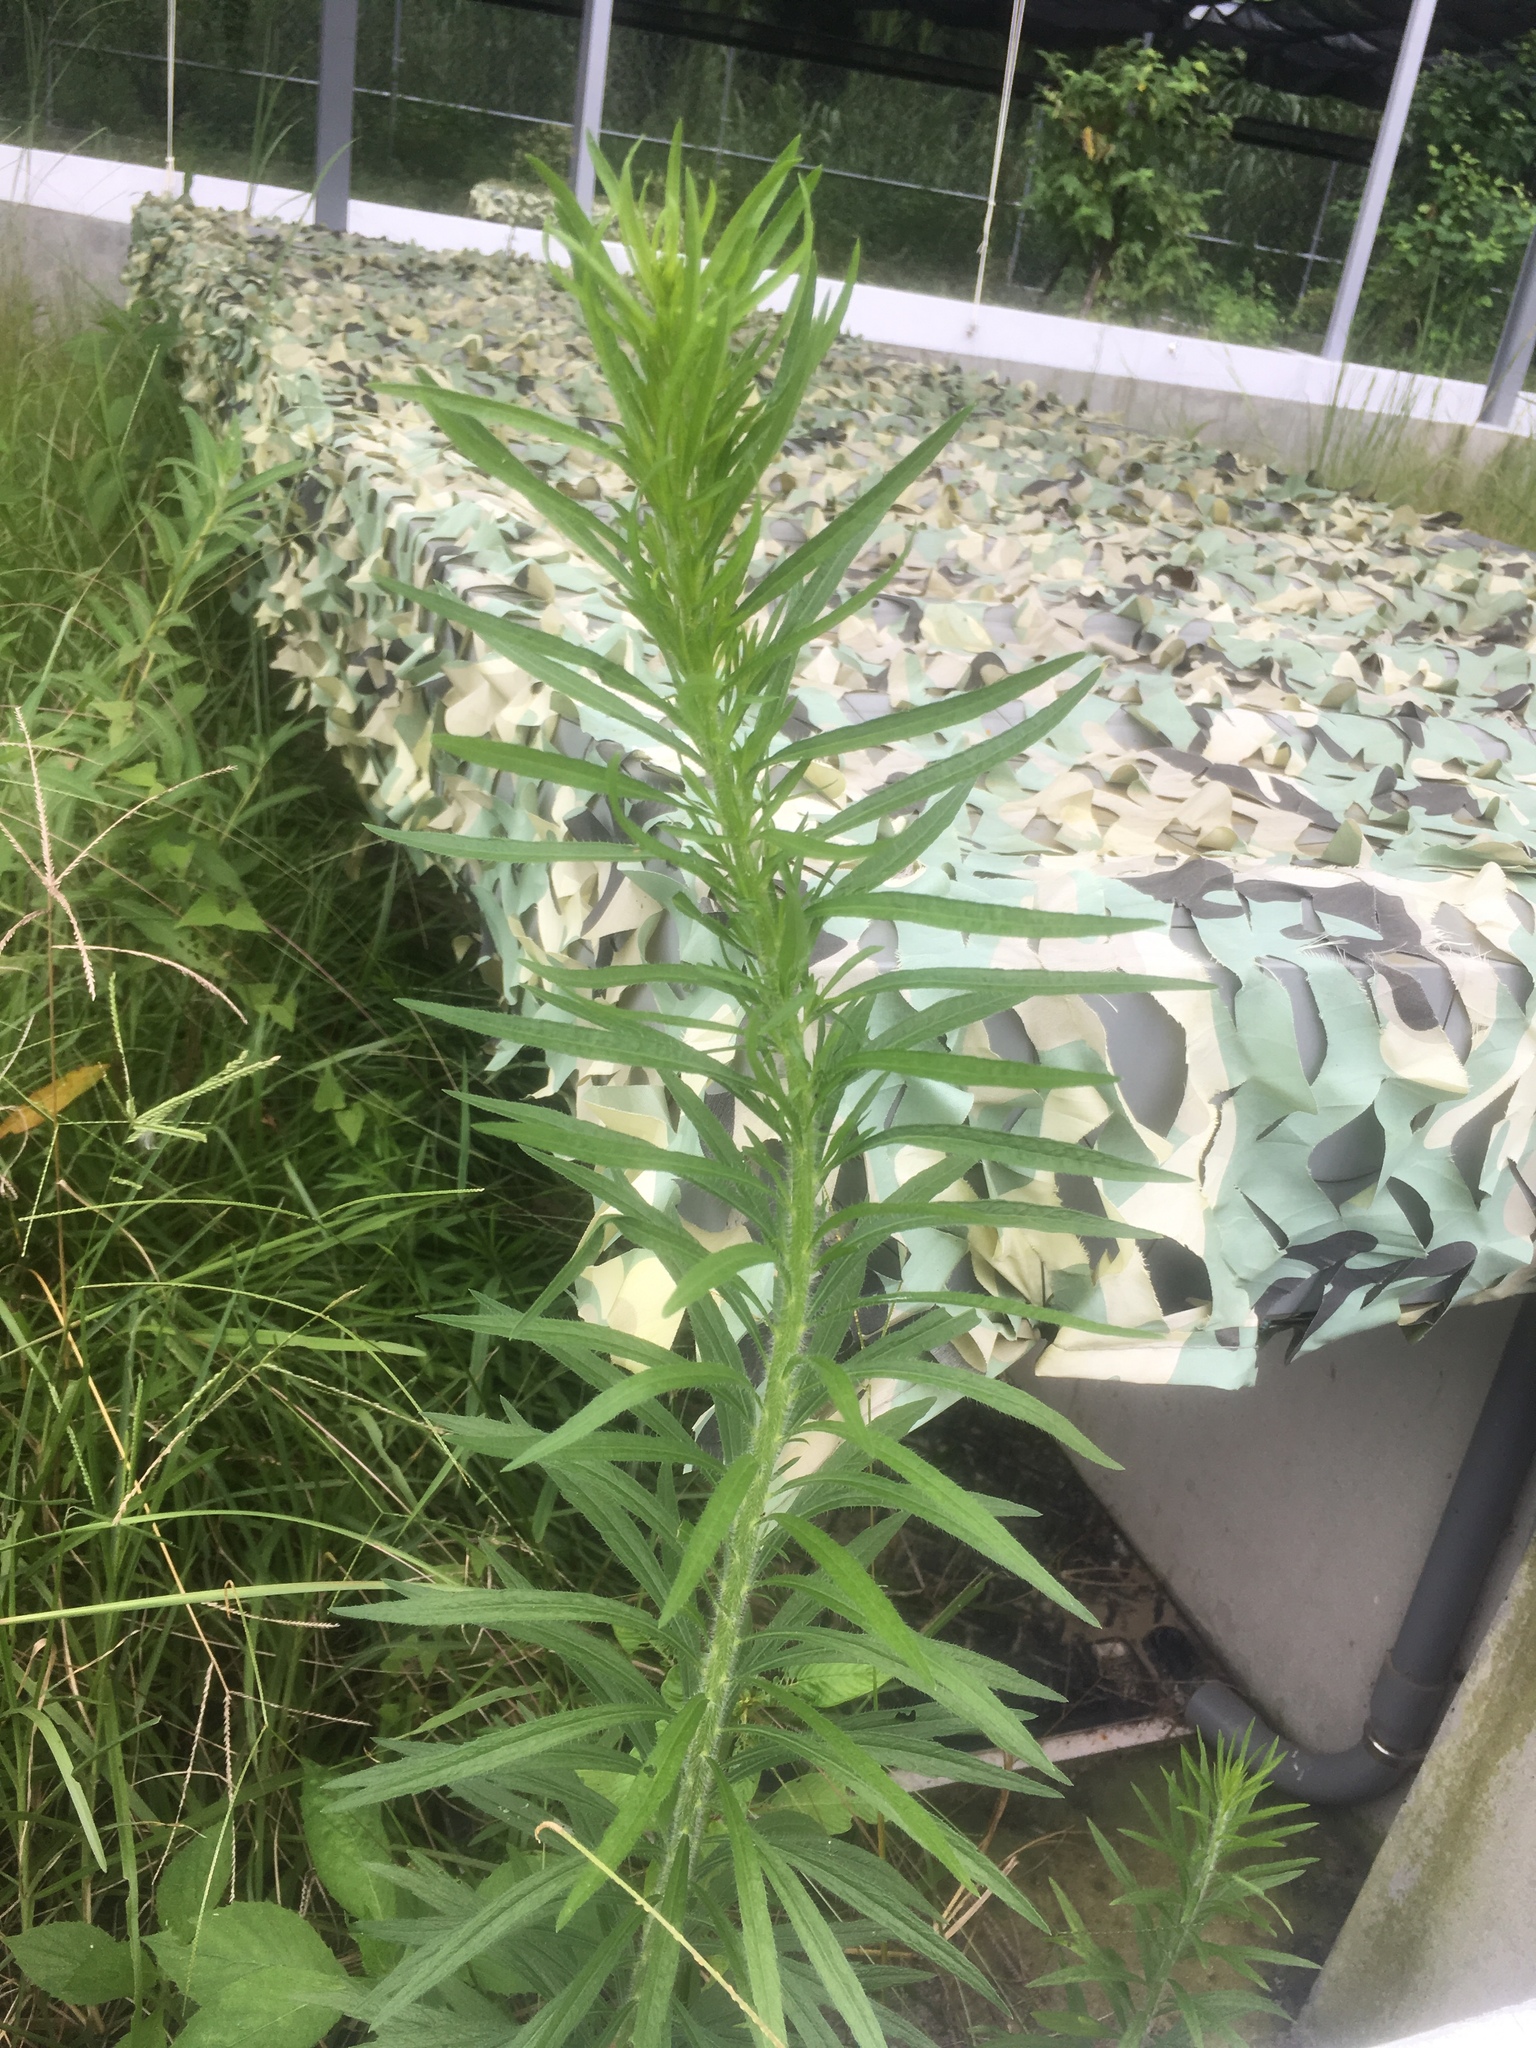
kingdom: Plantae
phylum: Tracheophyta
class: Magnoliopsida
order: Asterales
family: Asteraceae
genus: Erigeron
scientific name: Erigeron canadensis
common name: Canadian fleabane
